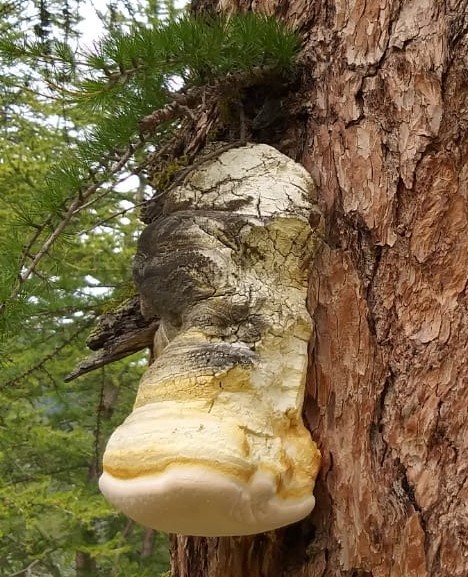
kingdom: Fungi
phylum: Basidiomycota
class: Agaricomycetes
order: Polyporales
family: Fomitopsidaceae
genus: Fomitopsis
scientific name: Fomitopsis officinalis
